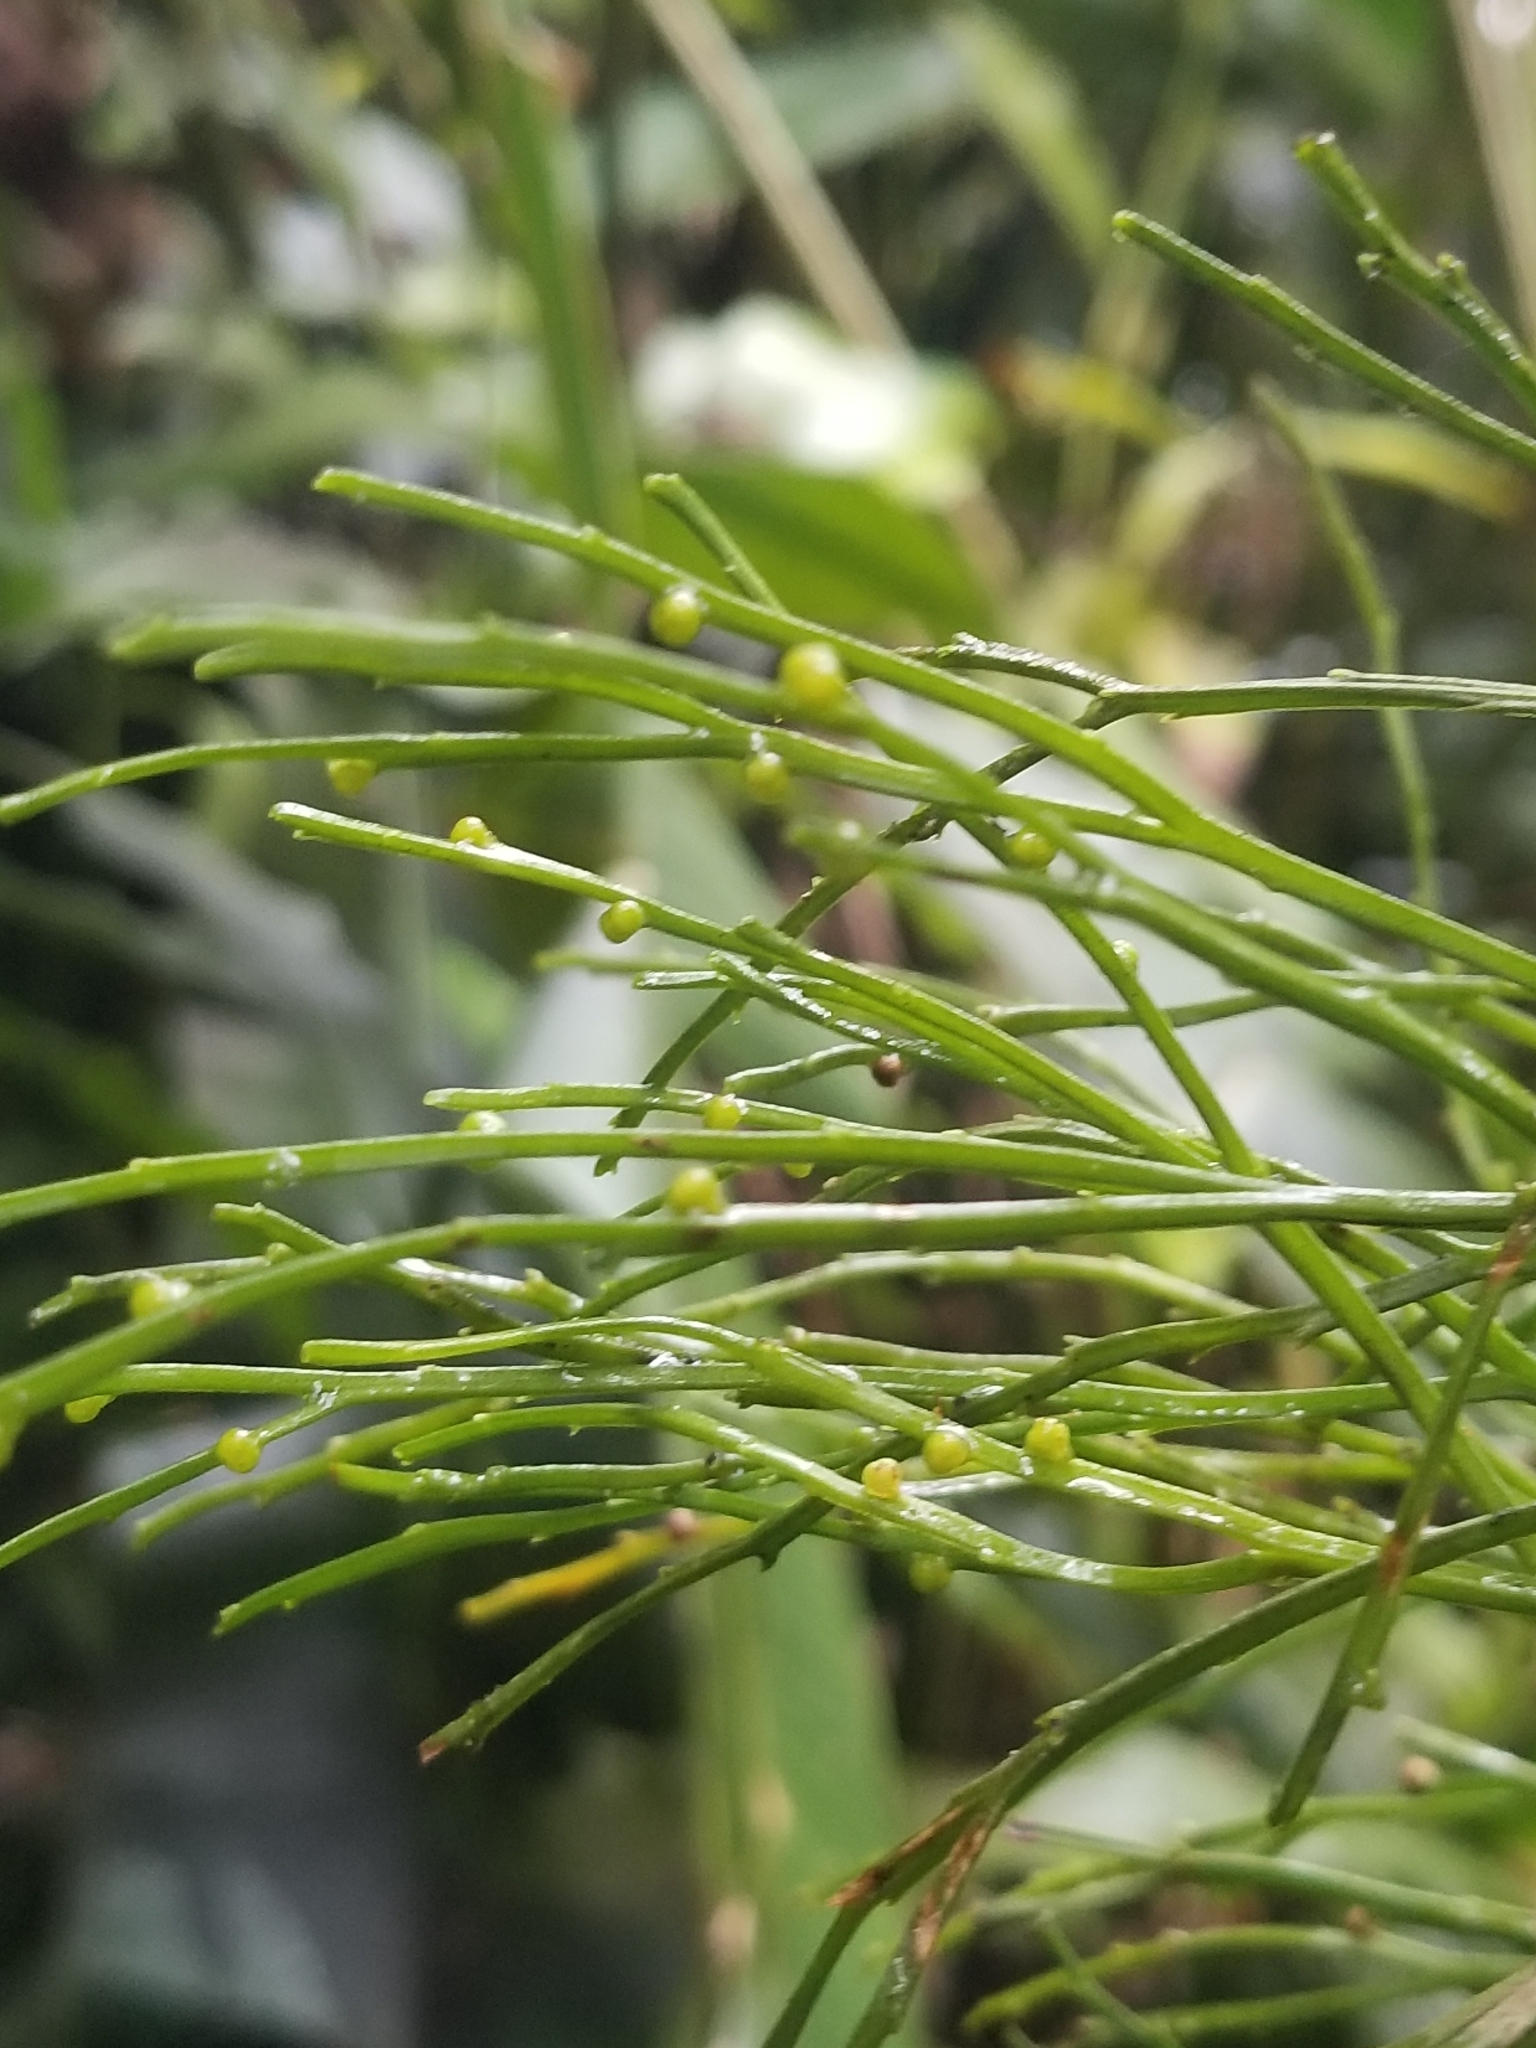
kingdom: Plantae
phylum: Tracheophyta
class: Polypodiopsida
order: Psilotales
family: Psilotaceae
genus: Psilotum
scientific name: Psilotum nudum
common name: Skeleton fork fern
